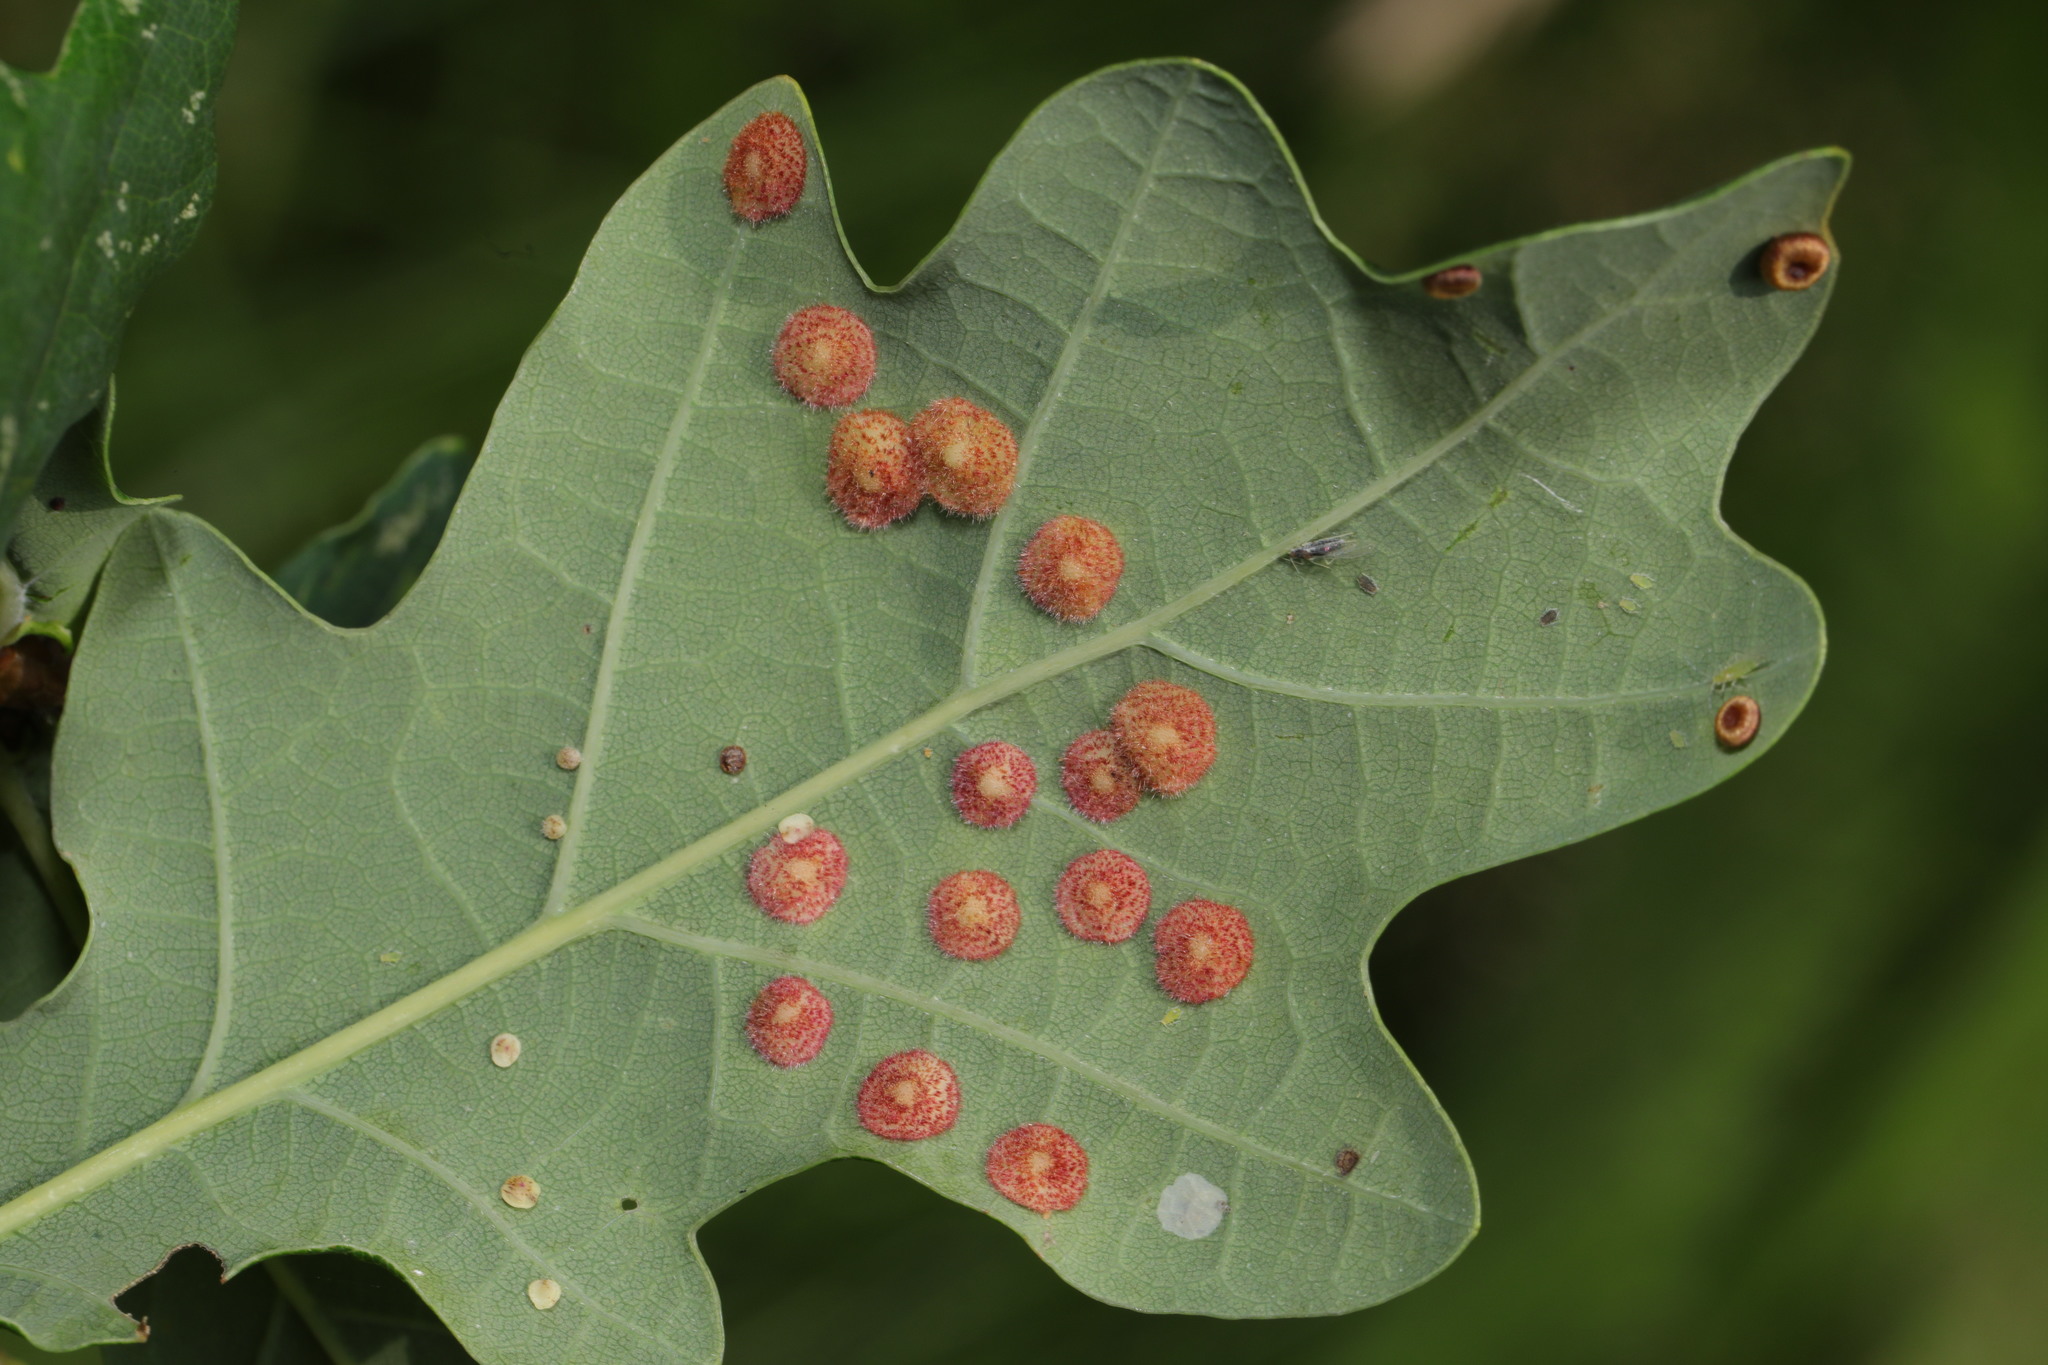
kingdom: Animalia
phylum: Arthropoda
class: Insecta
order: Hymenoptera
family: Cynipidae
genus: Neuroterus
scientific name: Neuroterus quercusbaccarum
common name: Common spangle gall
